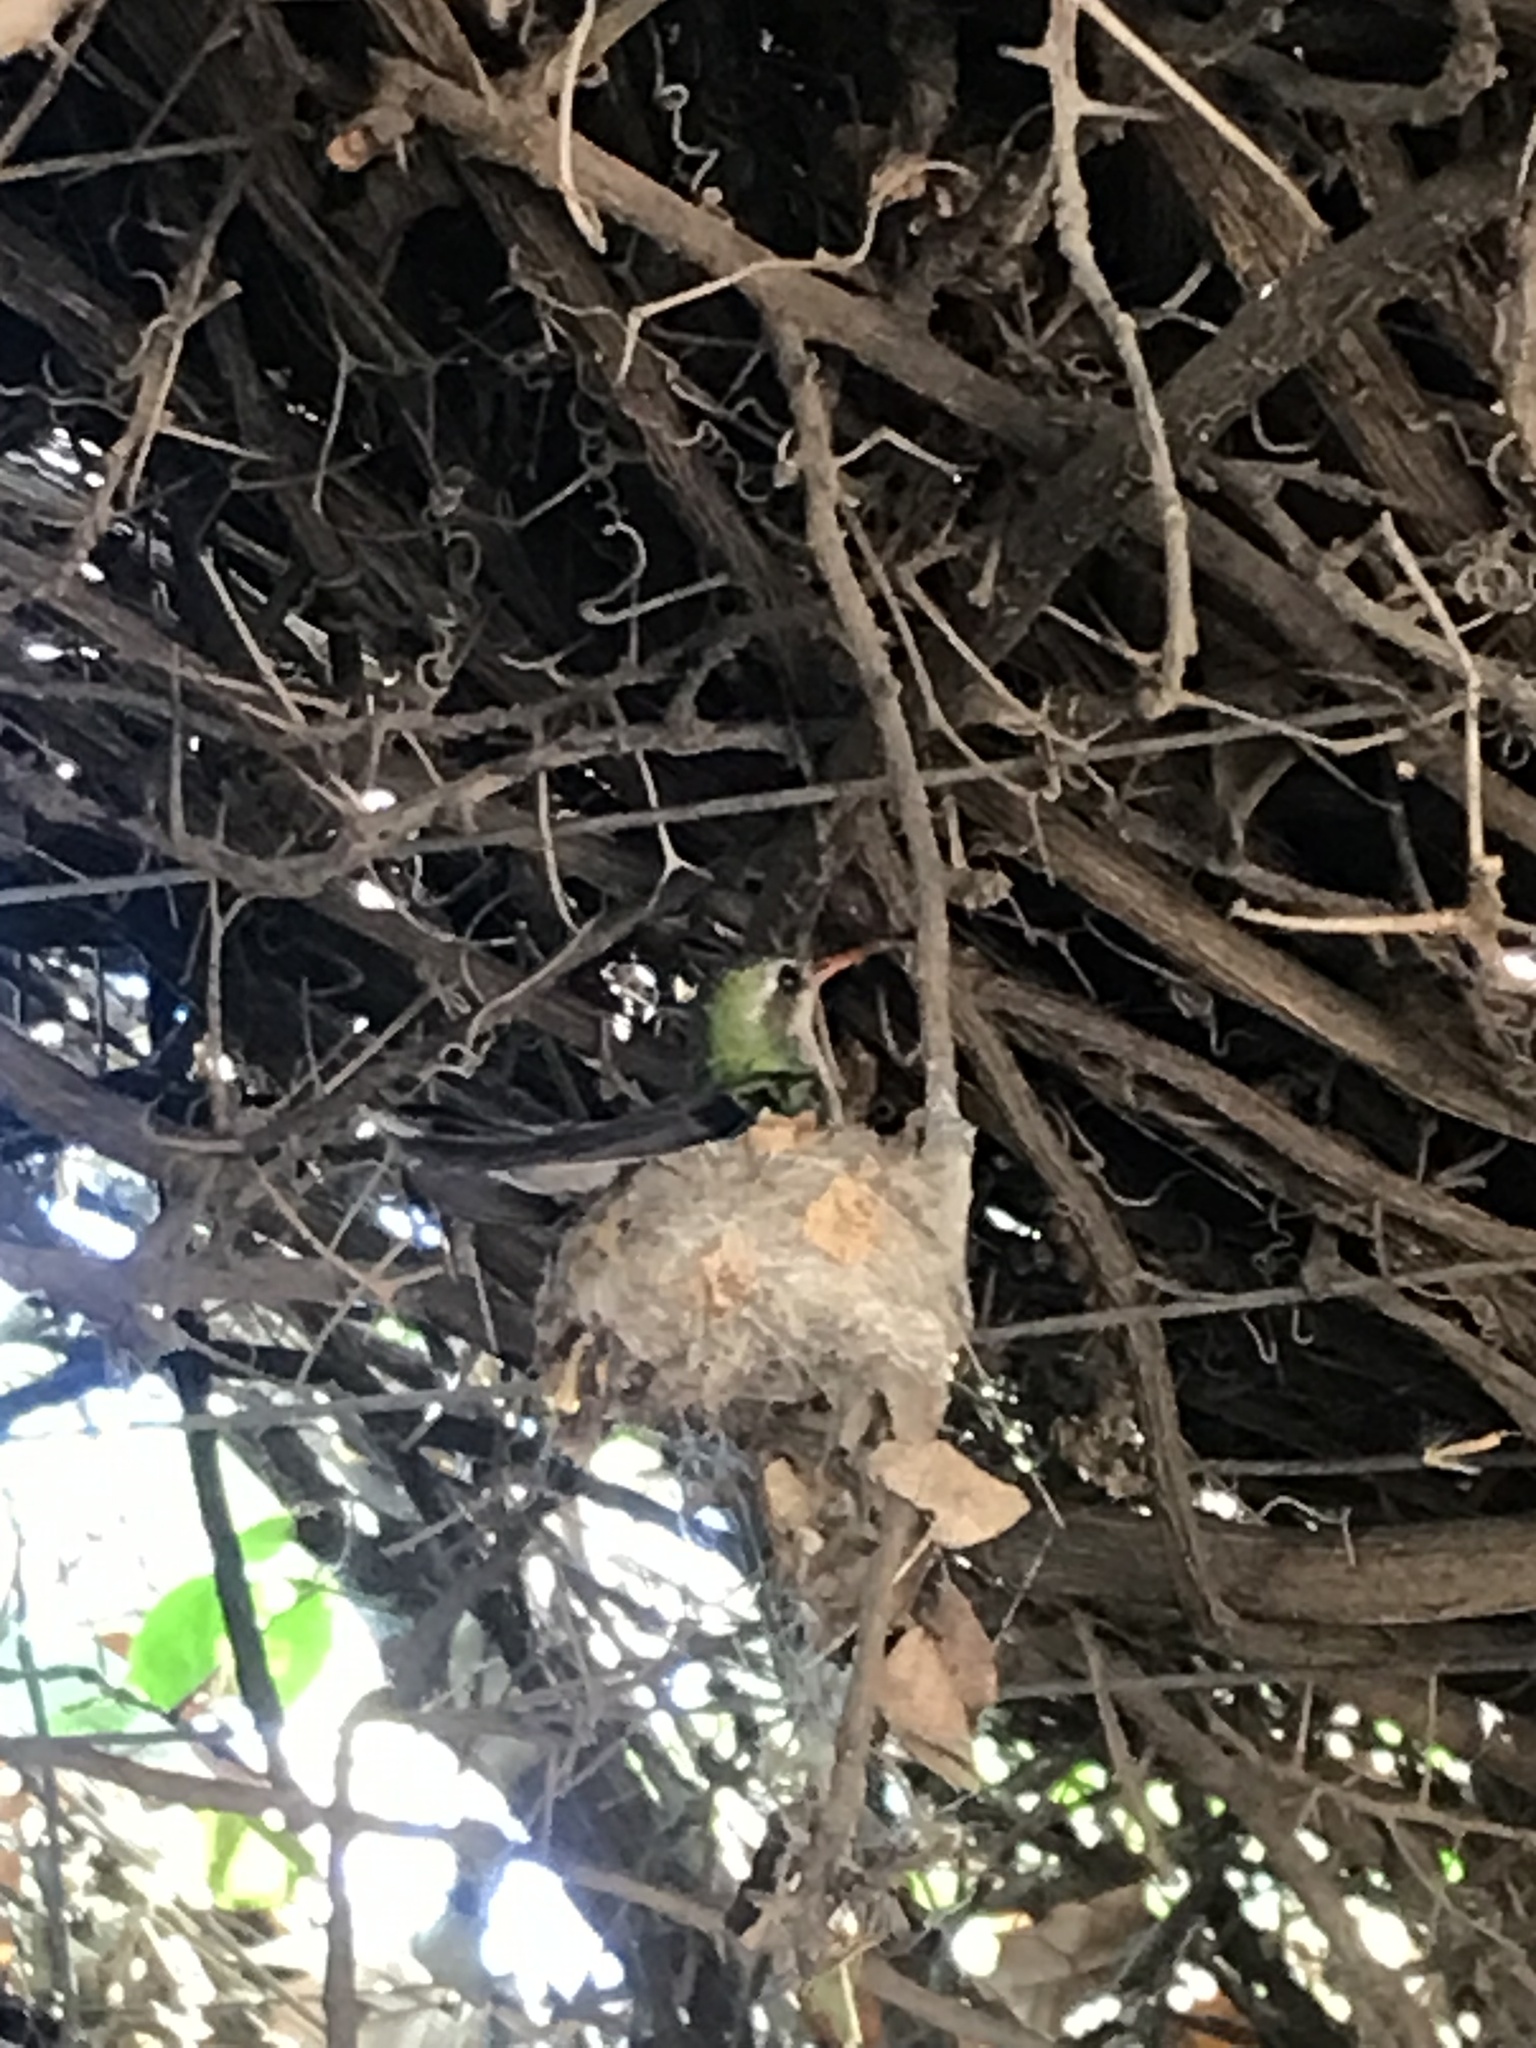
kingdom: Animalia
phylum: Chordata
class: Aves
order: Apodiformes
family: Trochilidae
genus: Chlorostilbon
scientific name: Chlorostilbon lucidus
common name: Glittering-bellied emerald
